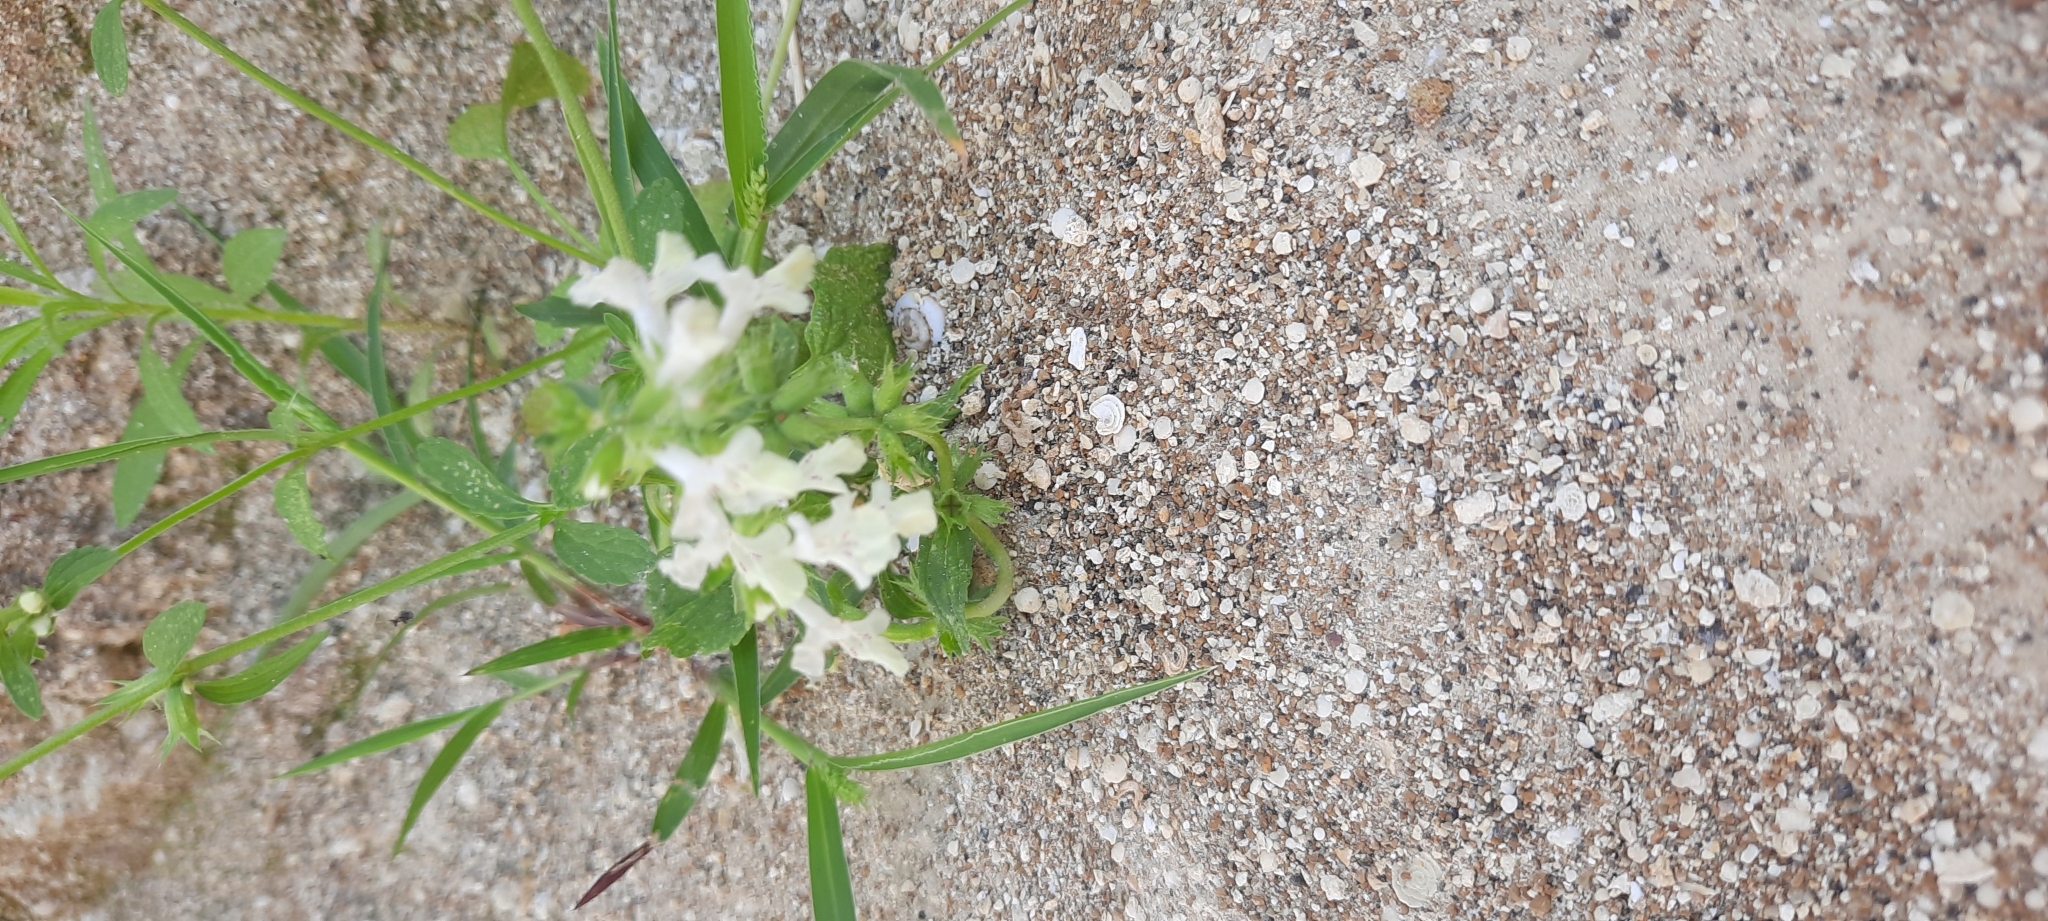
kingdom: Plantae
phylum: Tracheophyta
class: Magnoliopsida
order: Lamiales
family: Lamiaceae
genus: Stachys
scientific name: Stachys annua
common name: Annual yellow-woundwort
